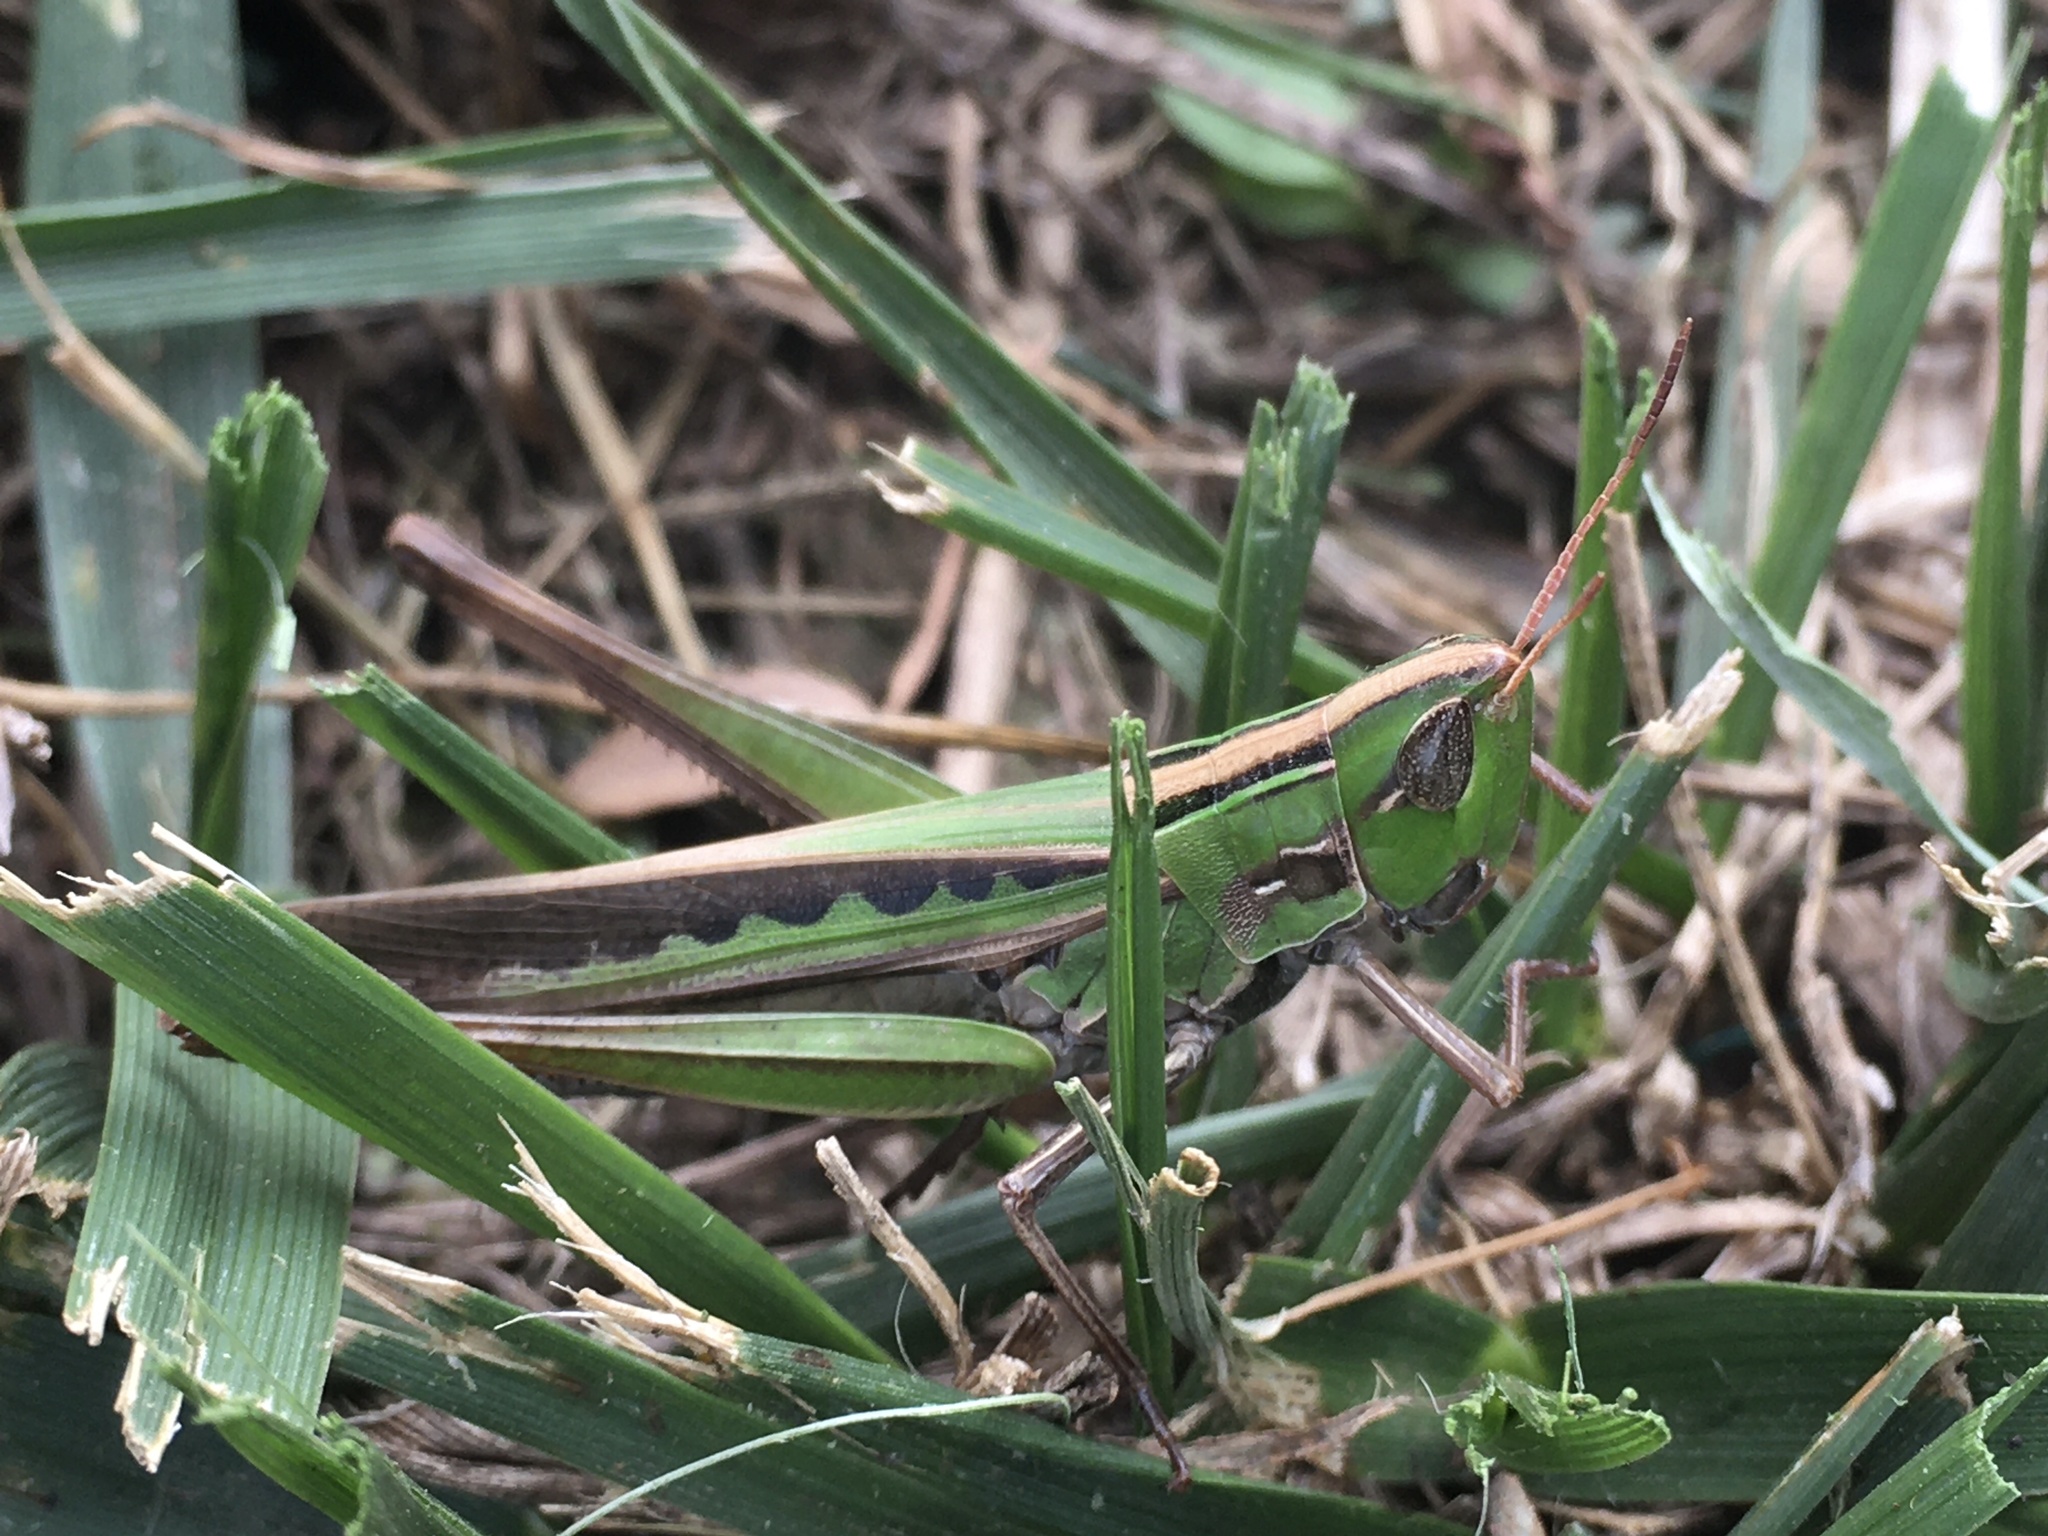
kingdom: Animalia
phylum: Arthropoda
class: Insecta
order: Orthoptera
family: Acrididae
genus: Syrbula
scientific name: Syrbula admirabilis
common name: Handsome grasshopper
